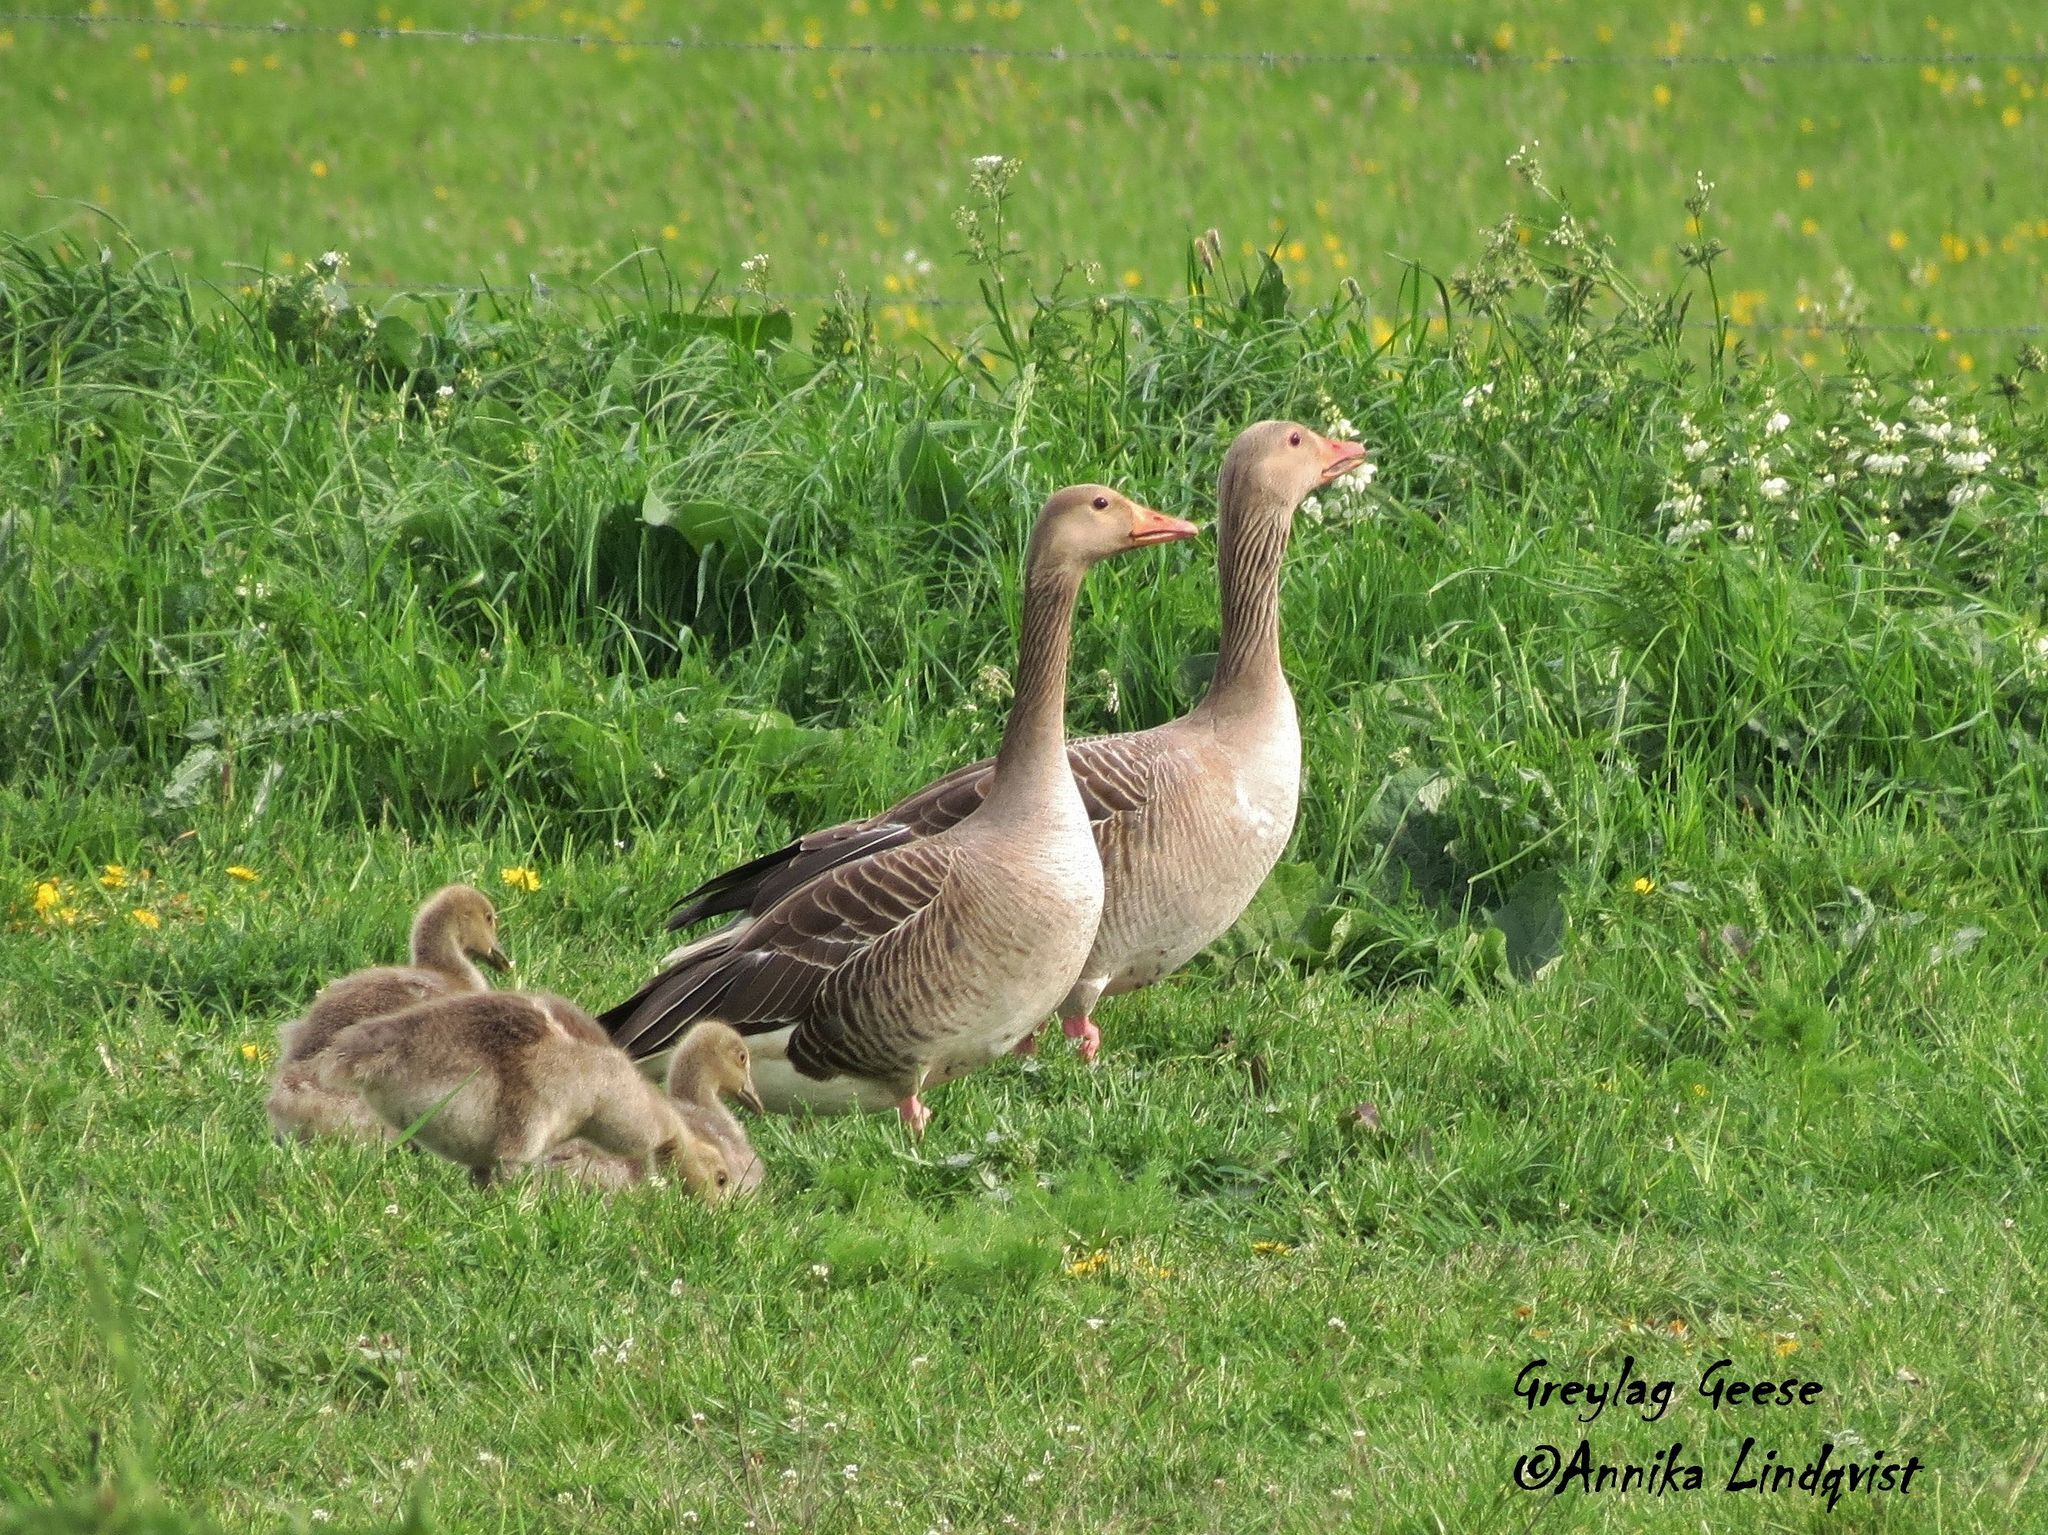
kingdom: Animalia
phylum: Chordata
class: Aves
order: Anseriformes
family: Anatidae
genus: Anser
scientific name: Anser anser
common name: Greylag goose
